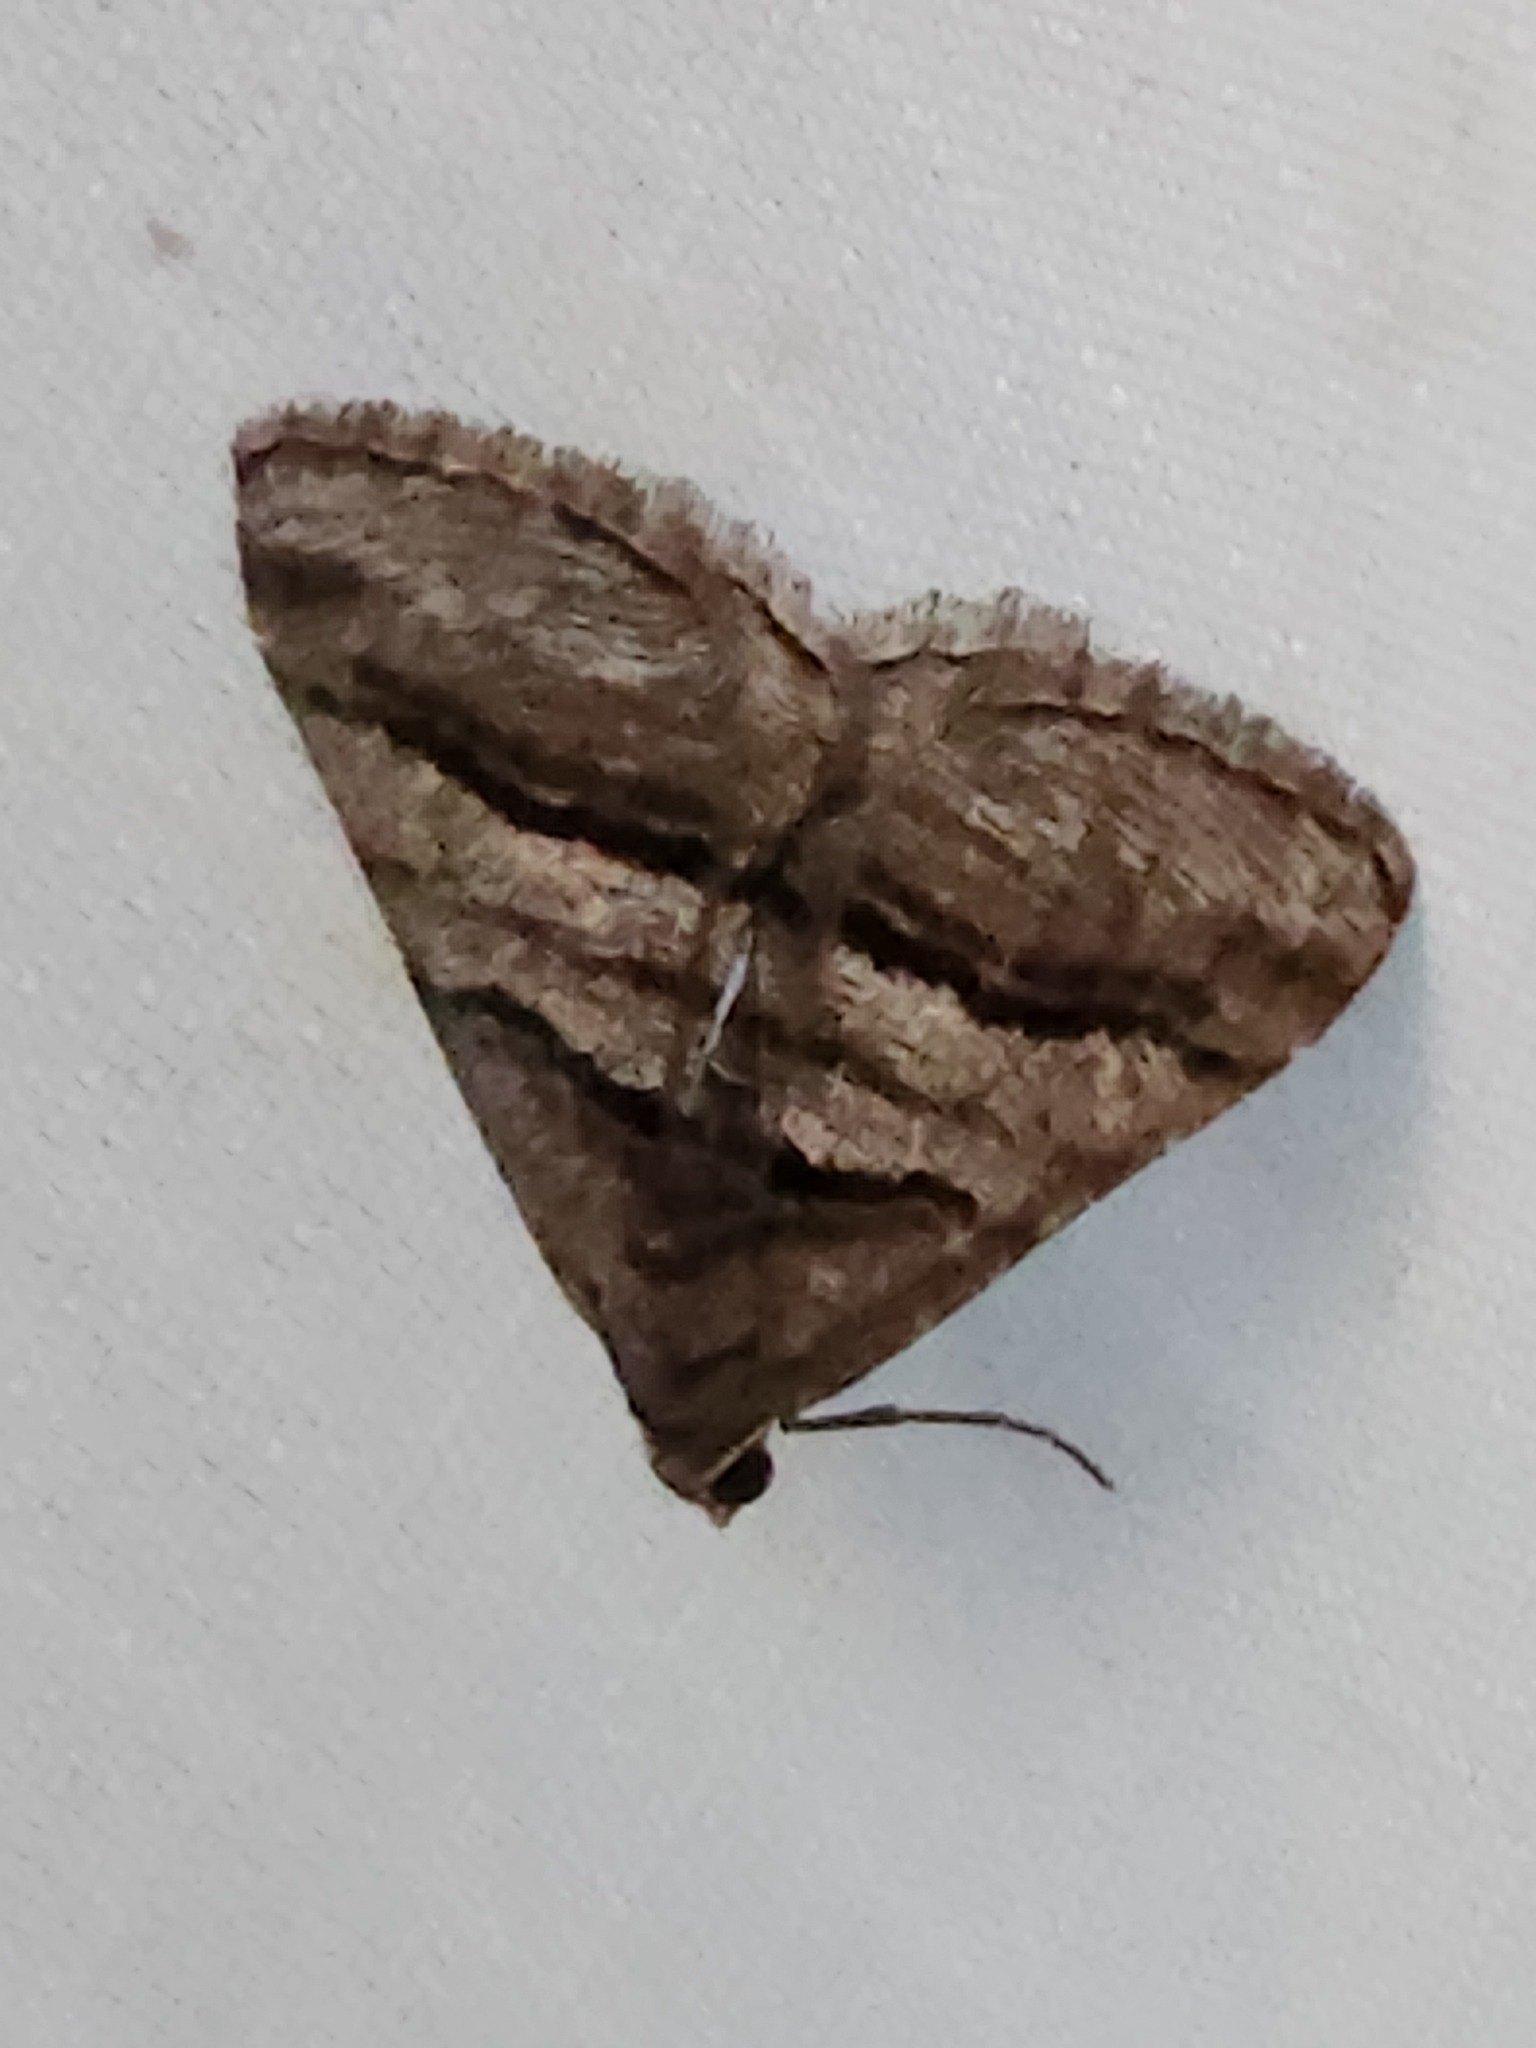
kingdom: Animalia
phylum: Arthropoda
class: Insecta
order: Lepidoptera
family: Geometridae
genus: Digrammia
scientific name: Digrammia atrofasciata
